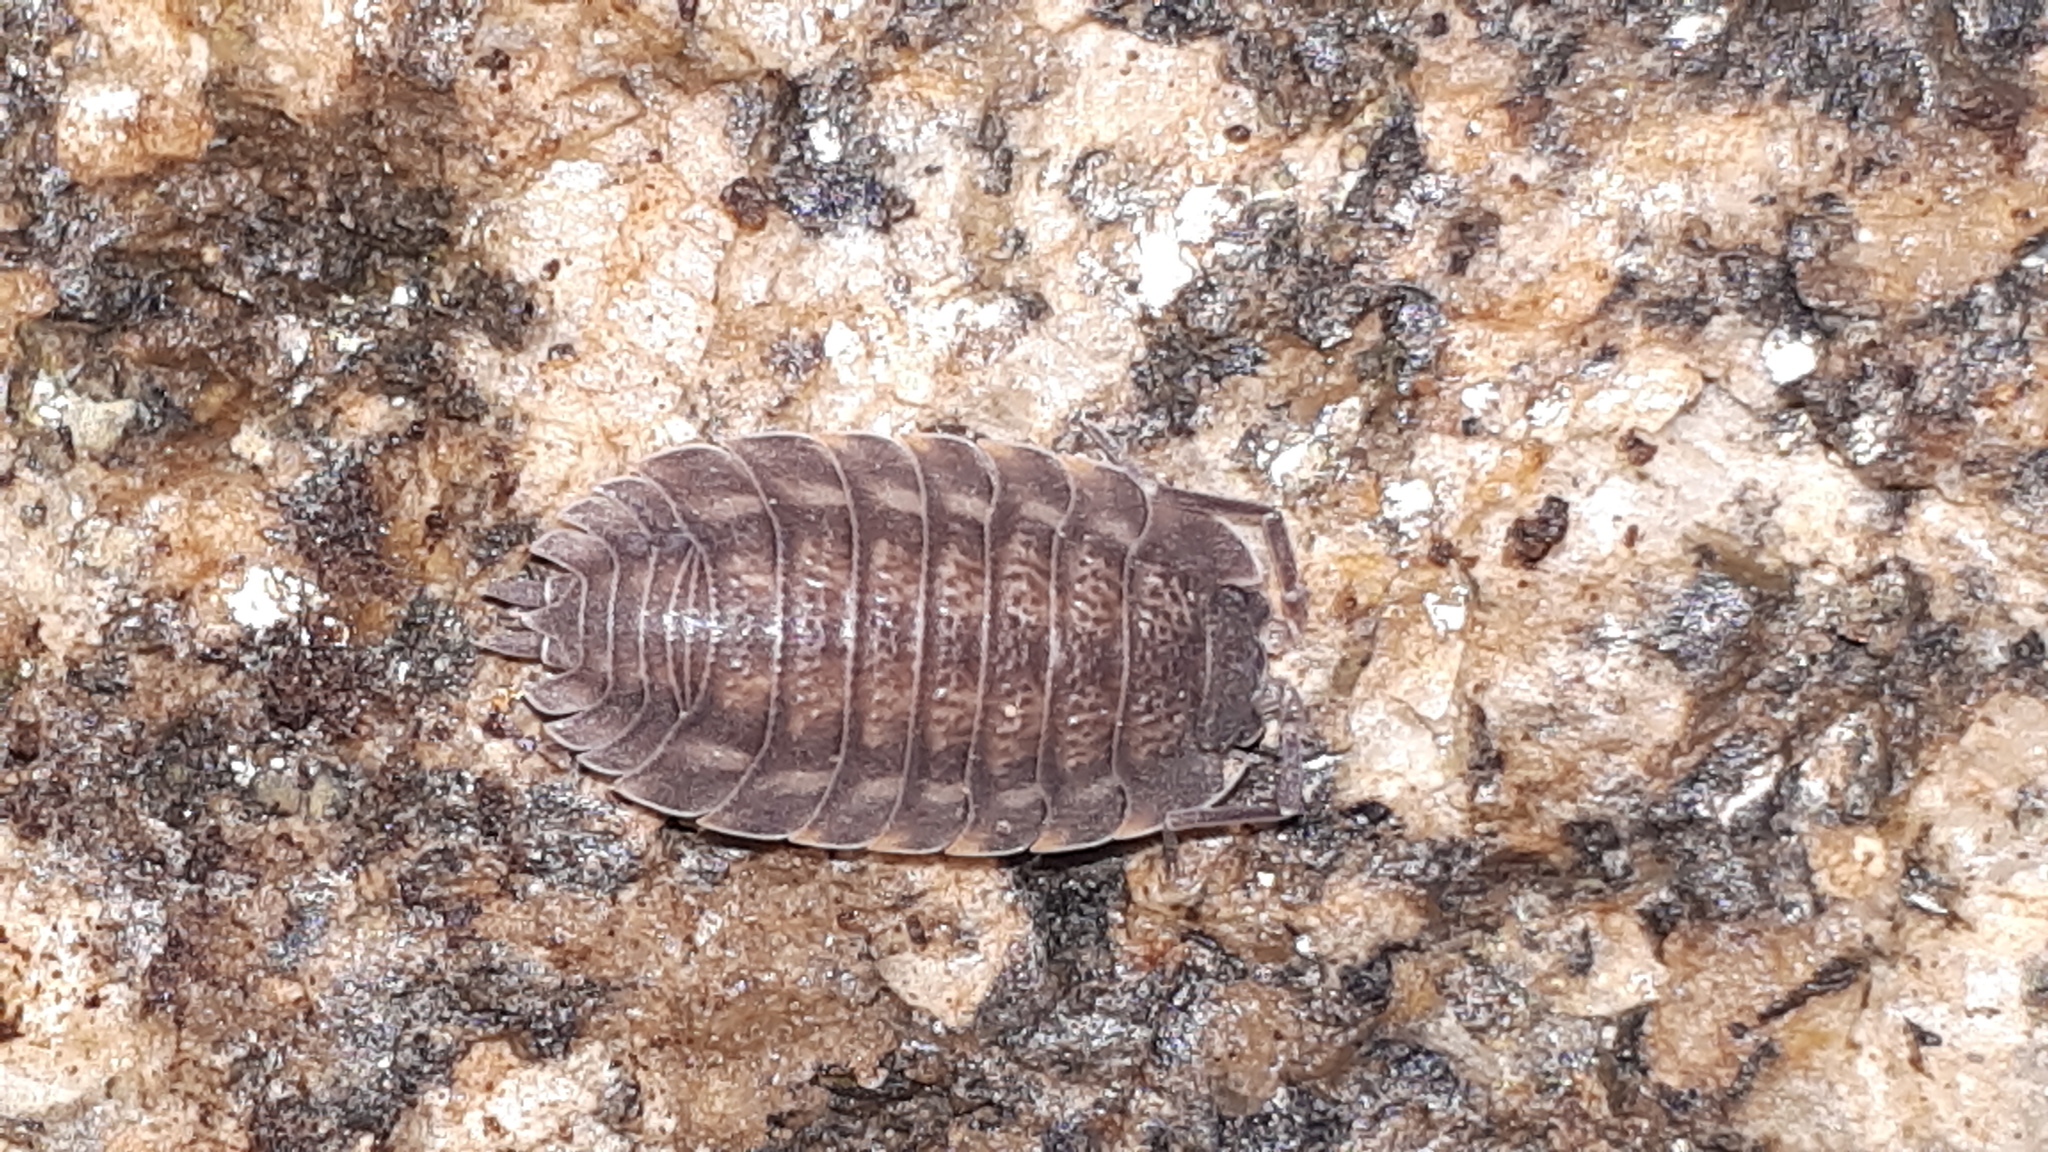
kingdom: Animalia
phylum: Arthropoda
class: Malacostraca
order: Isopoda
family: Trachelipodidae
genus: Trachelipus
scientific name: Trachelipus ratzeburgii
